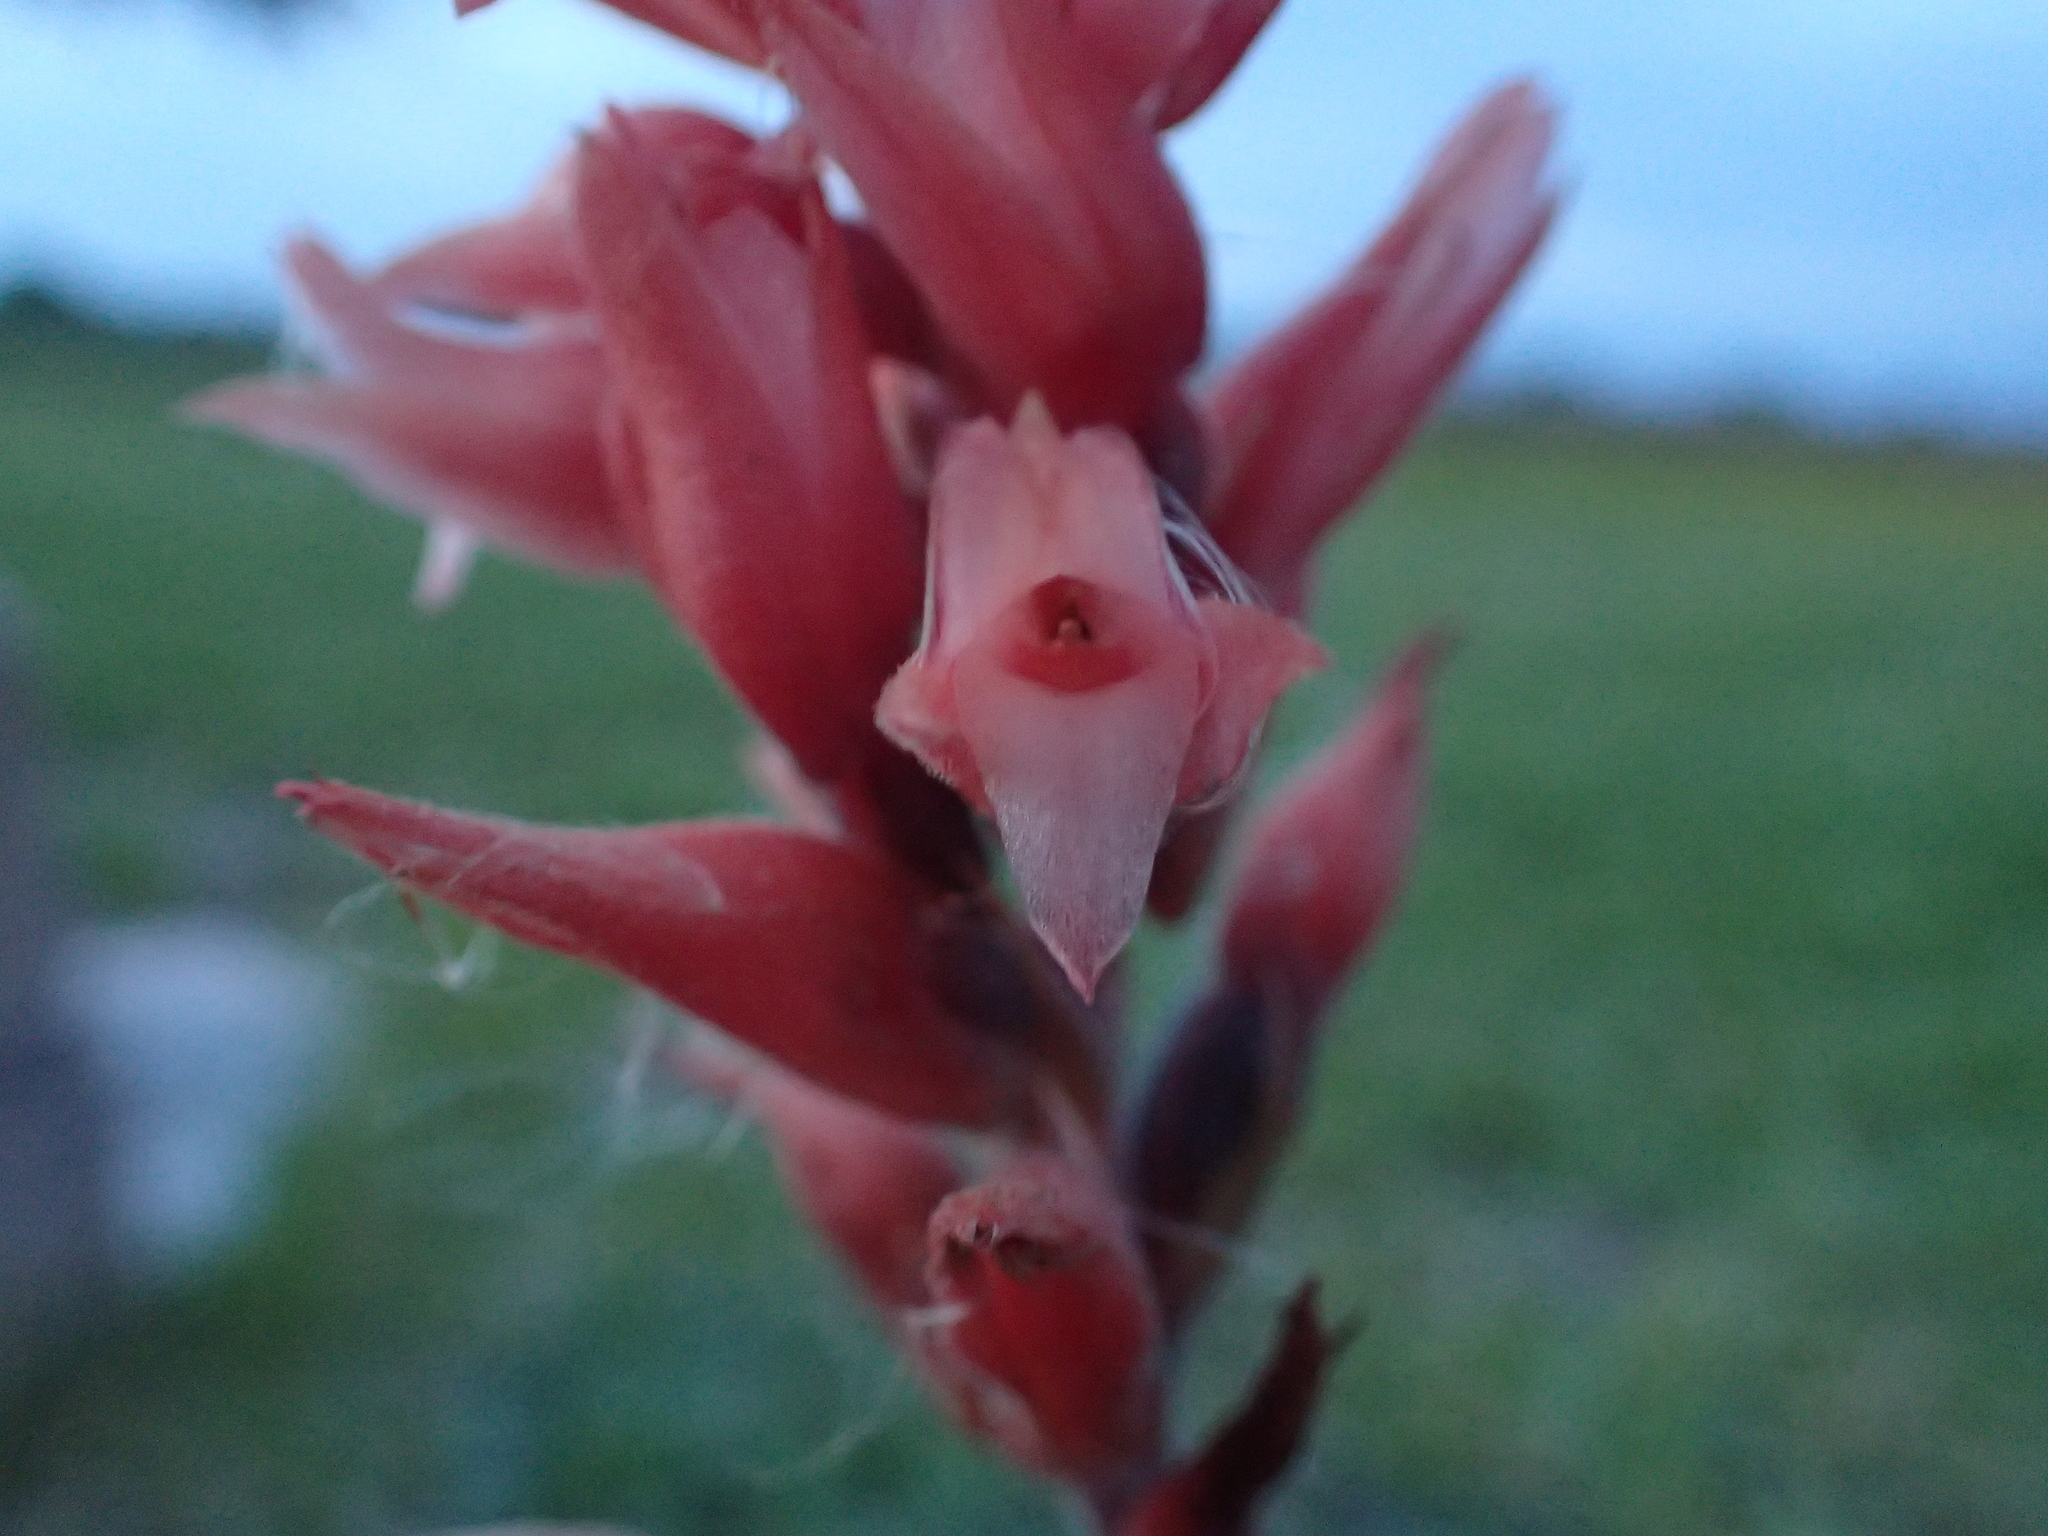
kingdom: Plantae
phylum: Tracheophyta
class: Liliopsida
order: Asparagales
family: Orchidaceae
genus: Sacoila
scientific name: Sacoila lanceolata
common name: Leafless beaked ladiestresses
